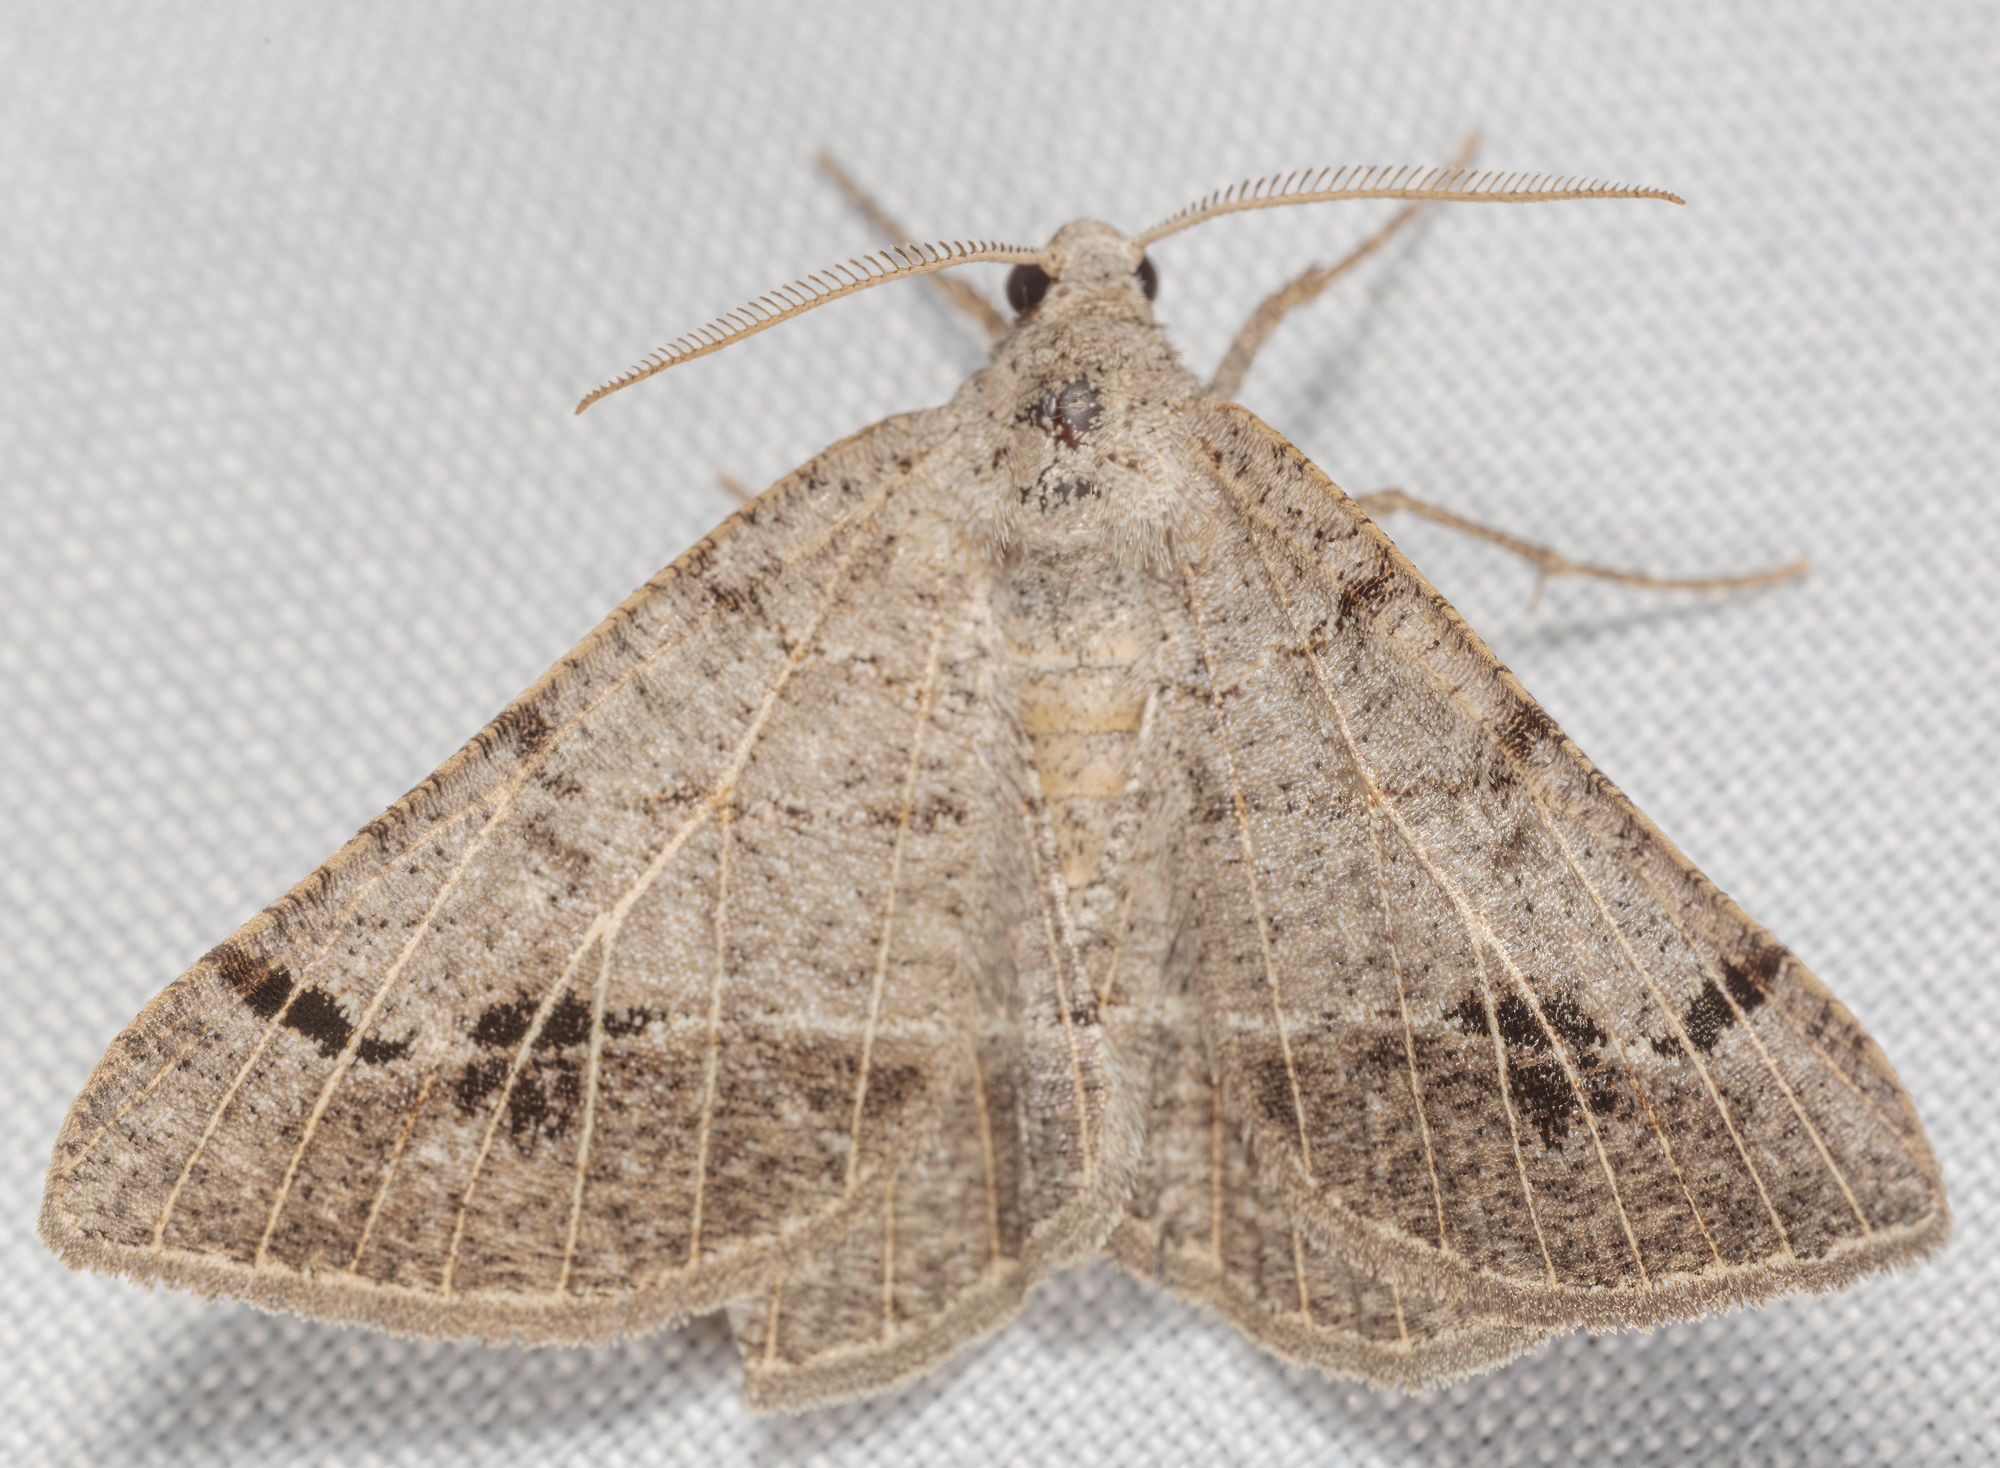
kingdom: Animalia
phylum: Arthropoda
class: Insecta
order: Lepidoptera
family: Geometridae
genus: Isturgia
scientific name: Isturgia dislocaria
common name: Pale-viened enconista
